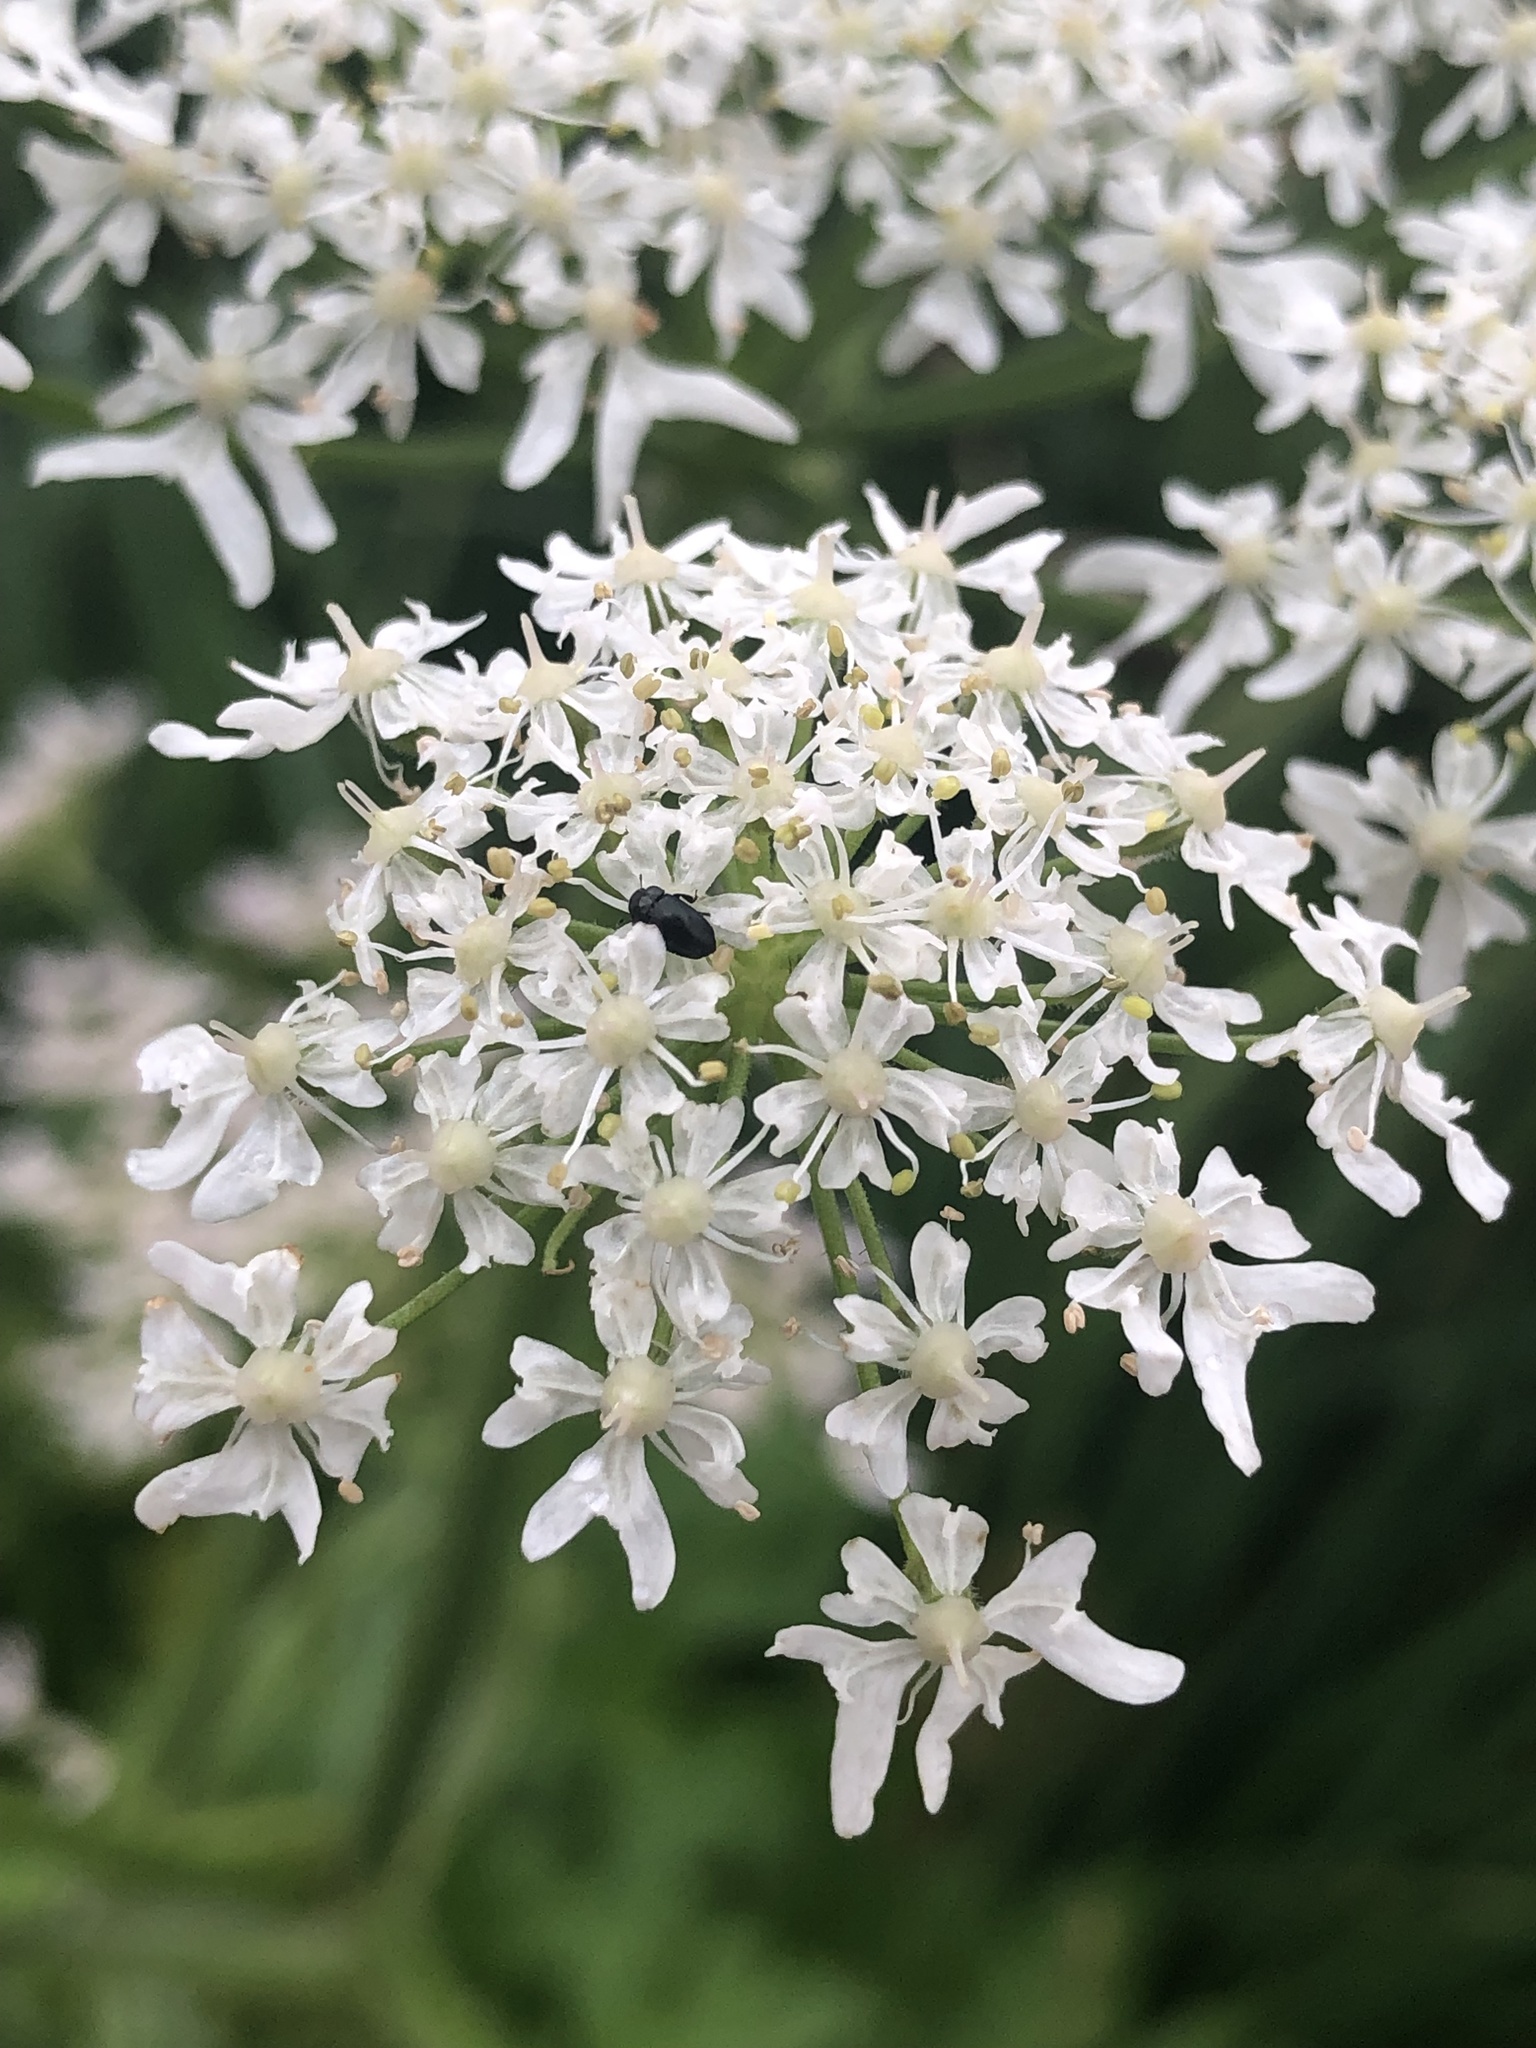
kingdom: Plantae
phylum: Tracheophyta
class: Magnoliopsida
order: Apiales
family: Apiaceae
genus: Heracleum
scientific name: Heracleum sphondylium
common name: Hogweed
